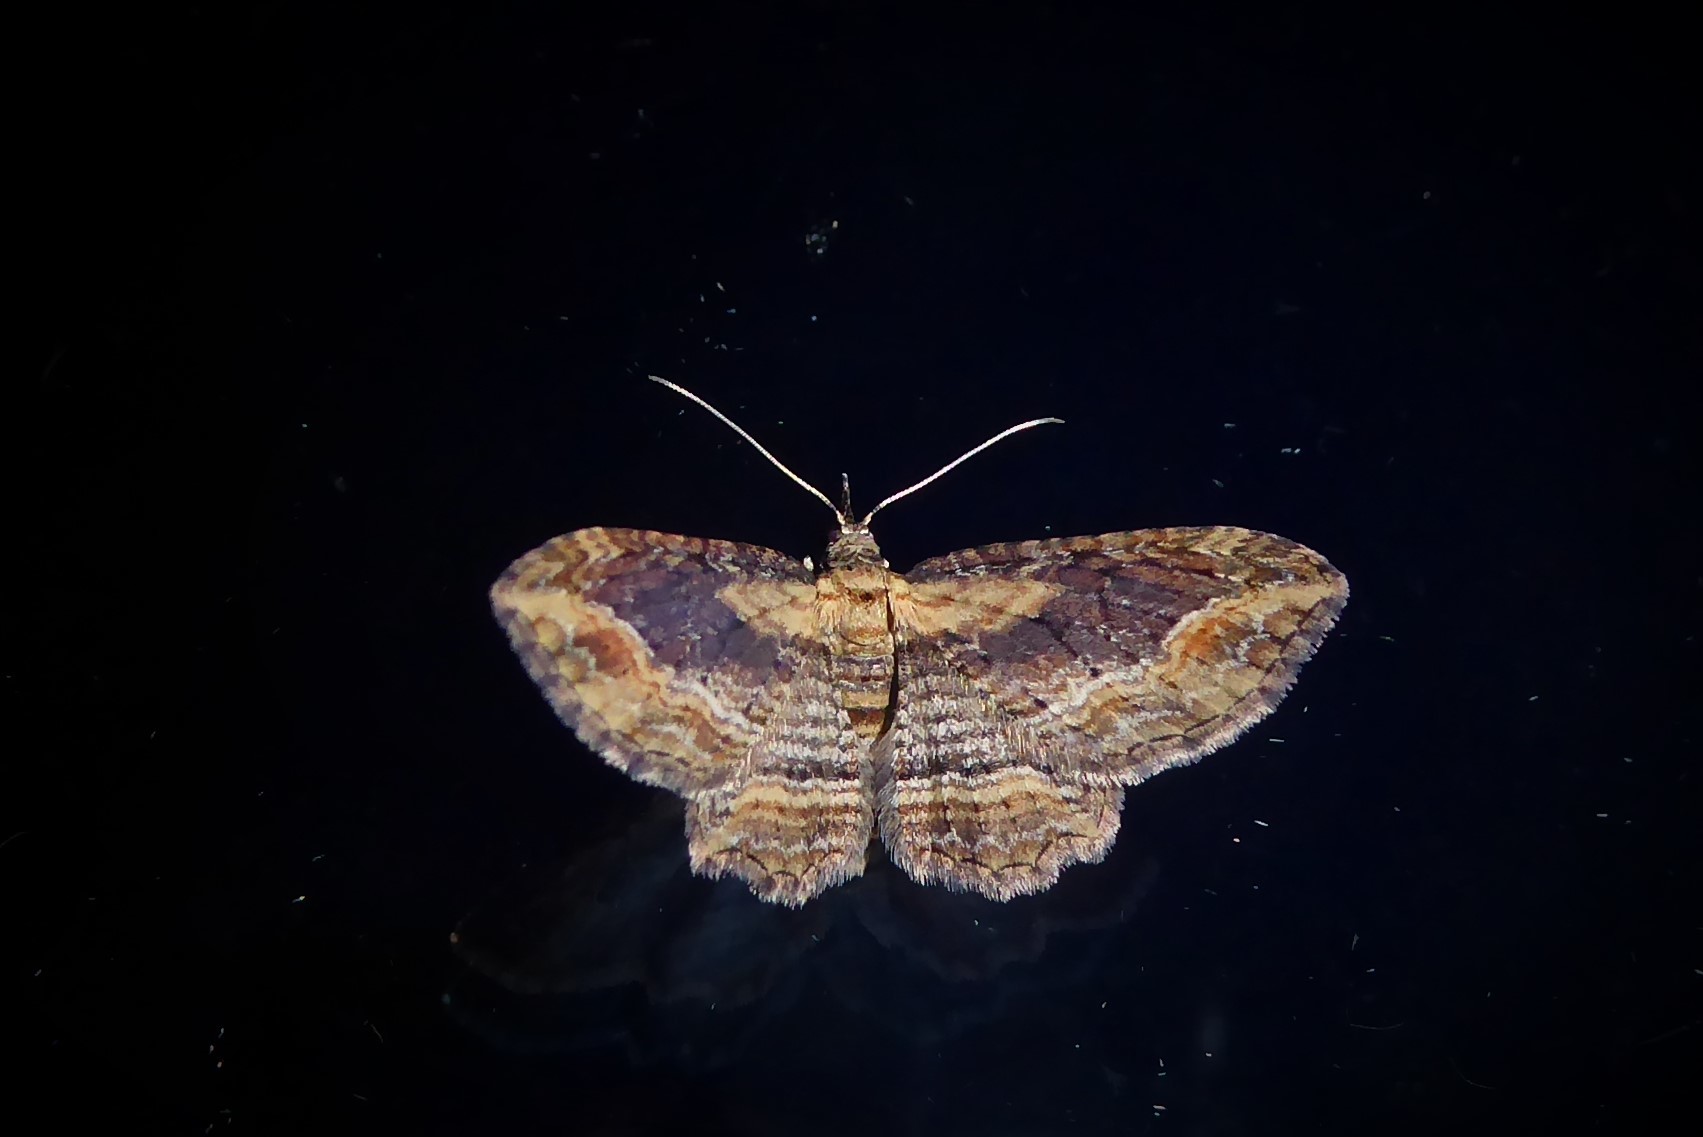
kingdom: Animalia
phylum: Arthropoda
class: Insecta
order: Lepidoptera
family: Geometridae
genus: Chloroclystis
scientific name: Chloroclystis filata
